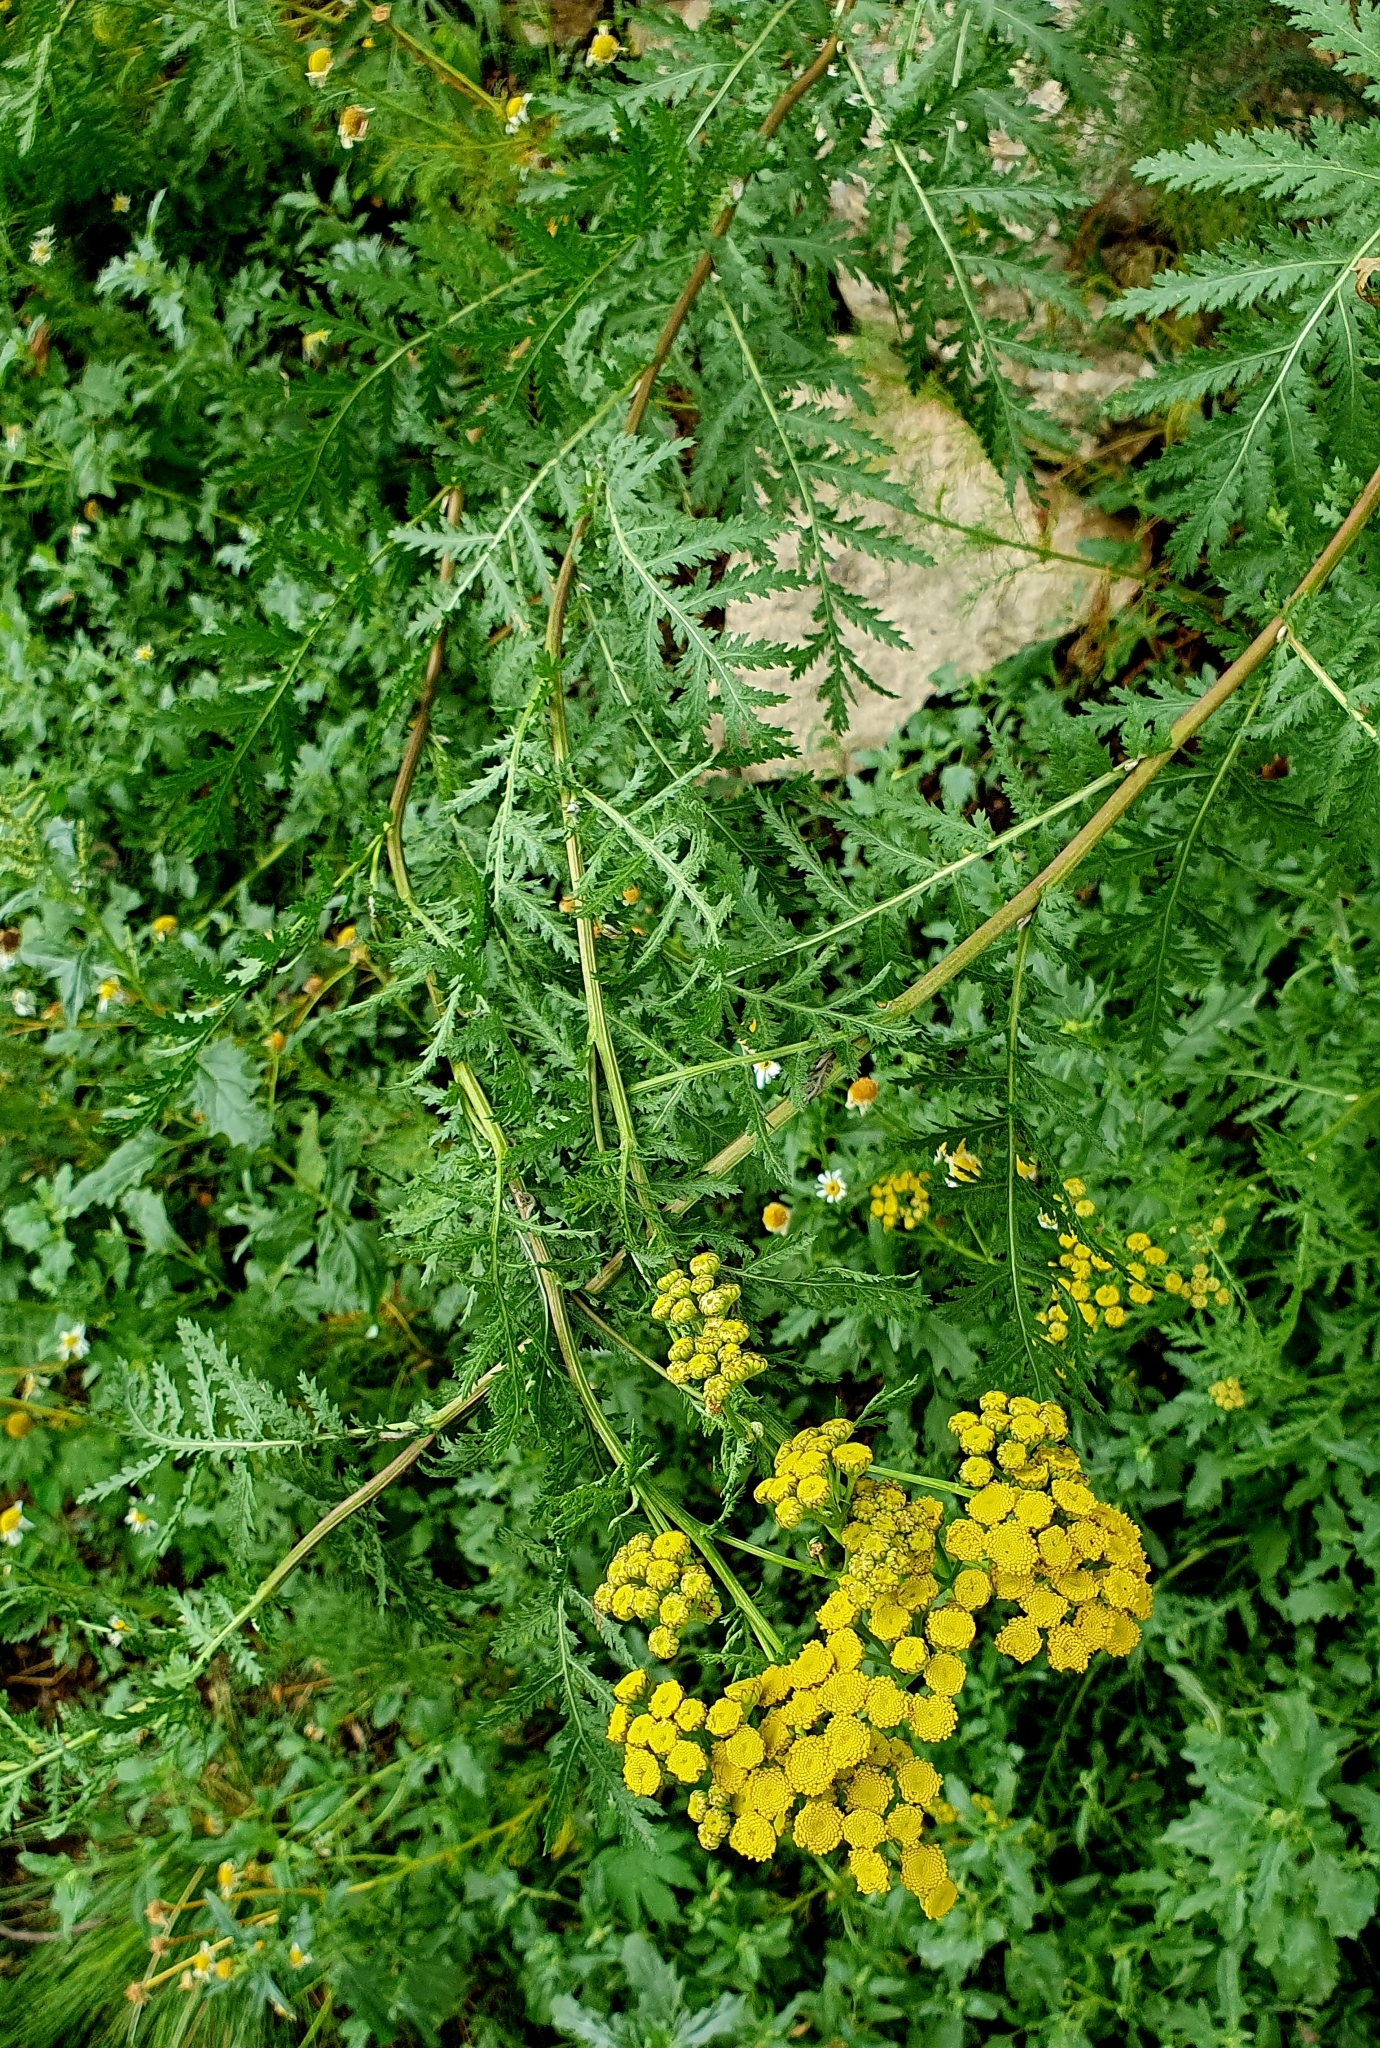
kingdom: Plantae
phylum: Tracheophyta
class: Magnoliopsida
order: Asterales
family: Asteraceae
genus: Tanacetum
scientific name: Tanacetum vulgare
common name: Common tansy
